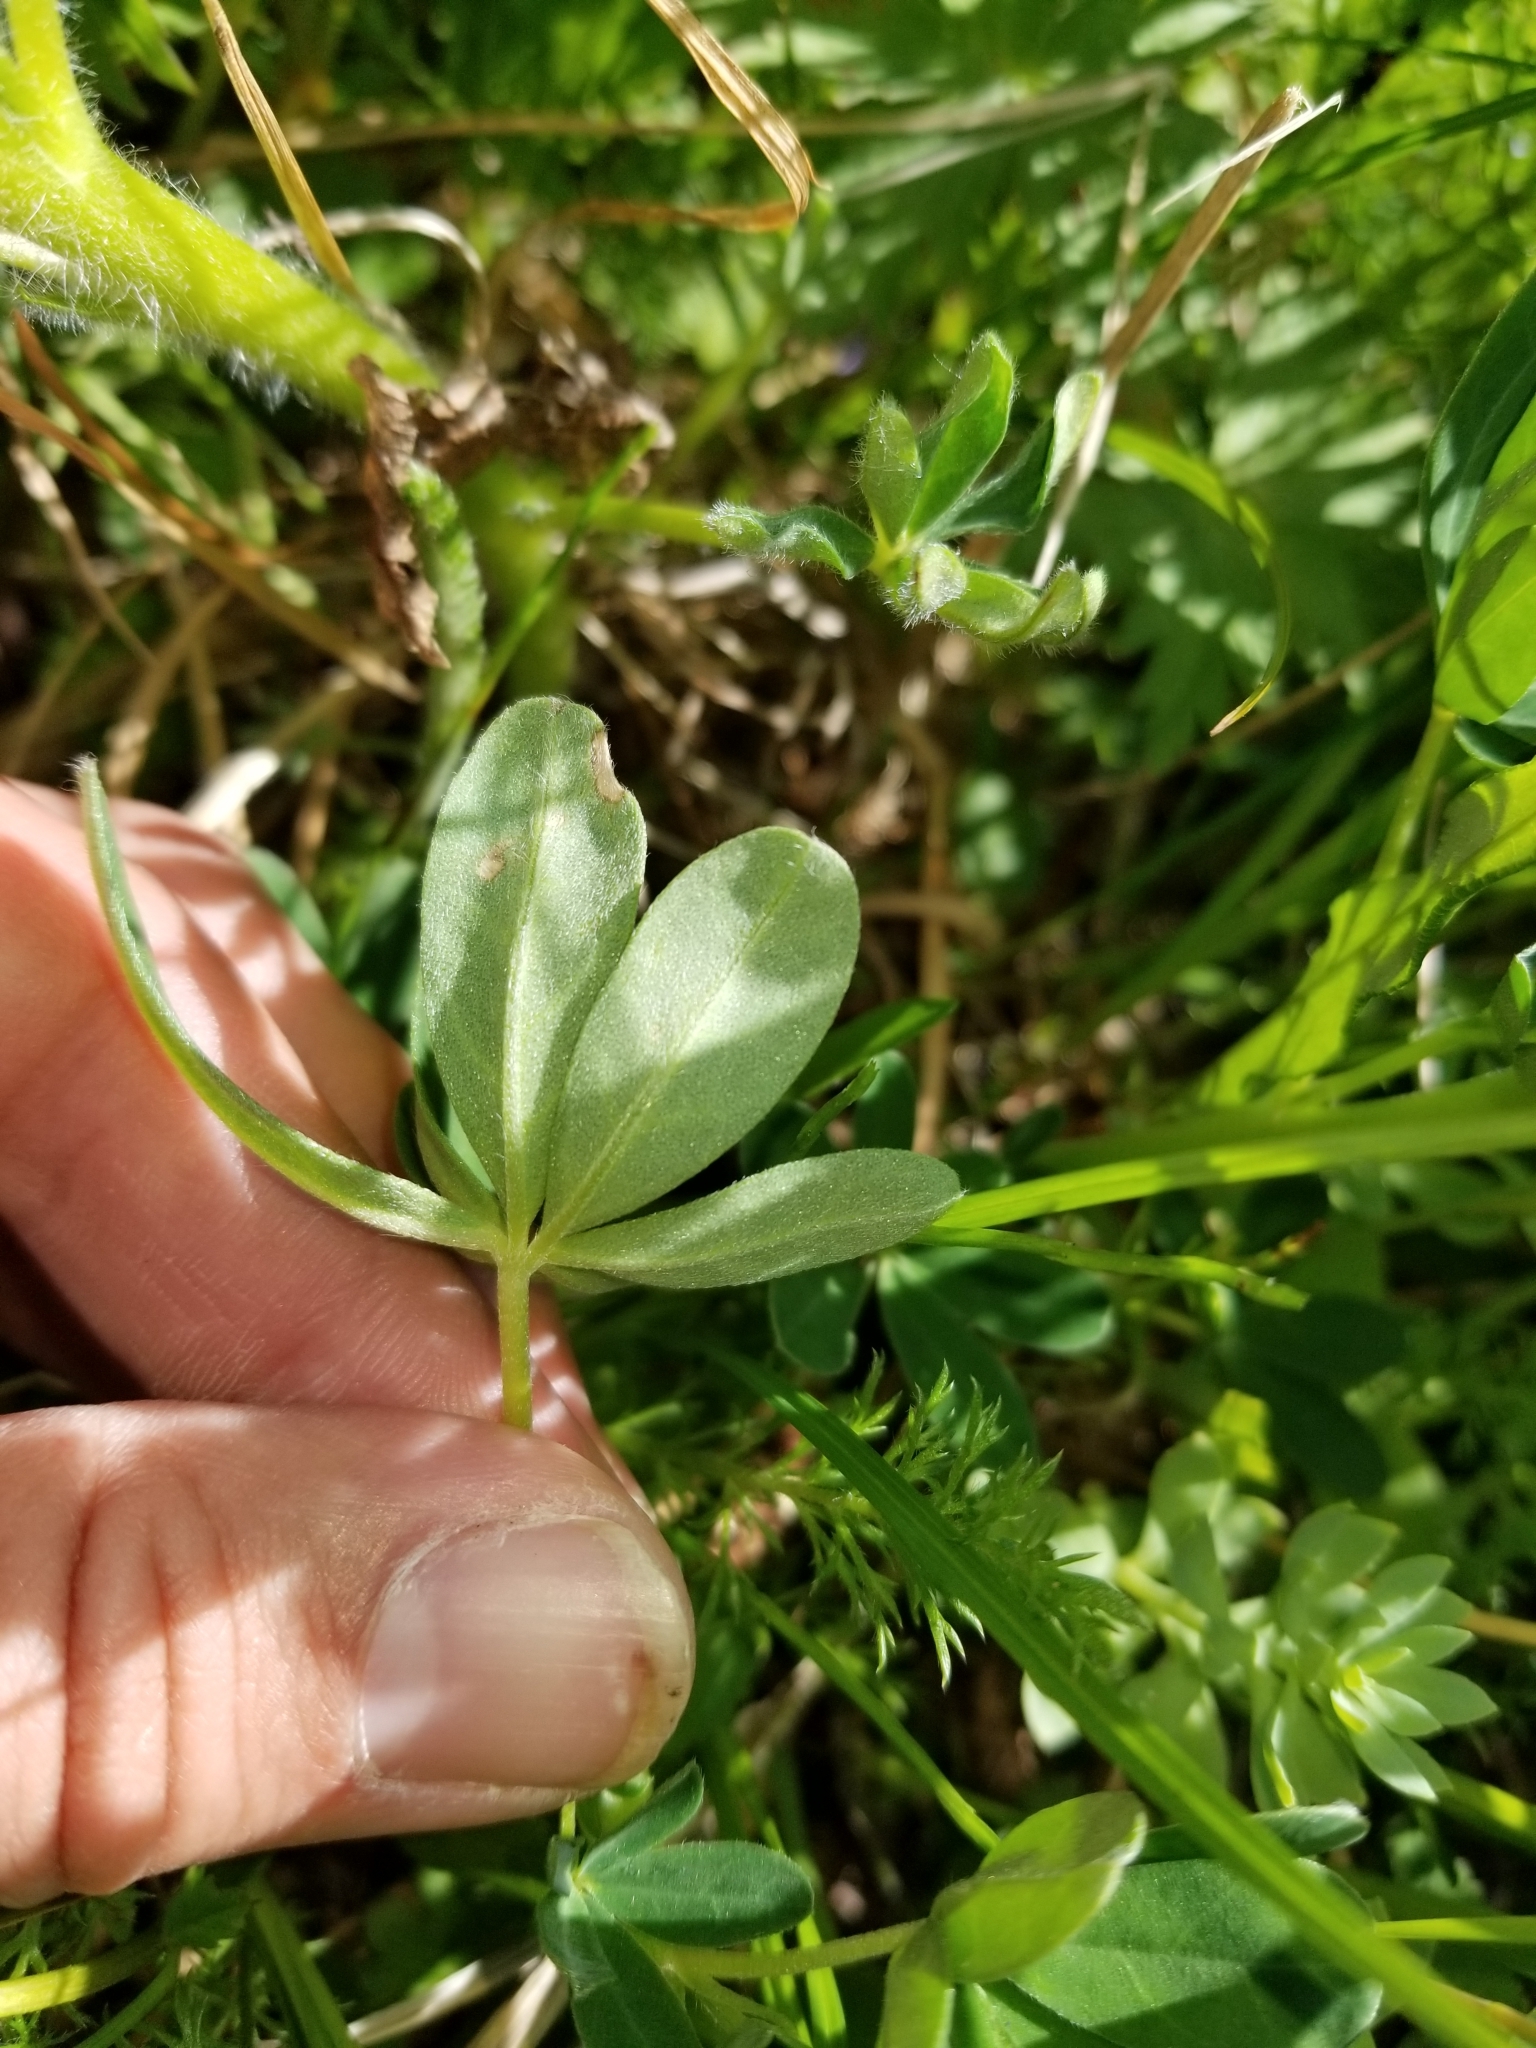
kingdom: Plantae
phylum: Tracheophyta
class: Magnoliopsida
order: Fabales
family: Fabaceae
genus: Lupinus
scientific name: Lupinus nootkatensis
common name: Nootka lupine
